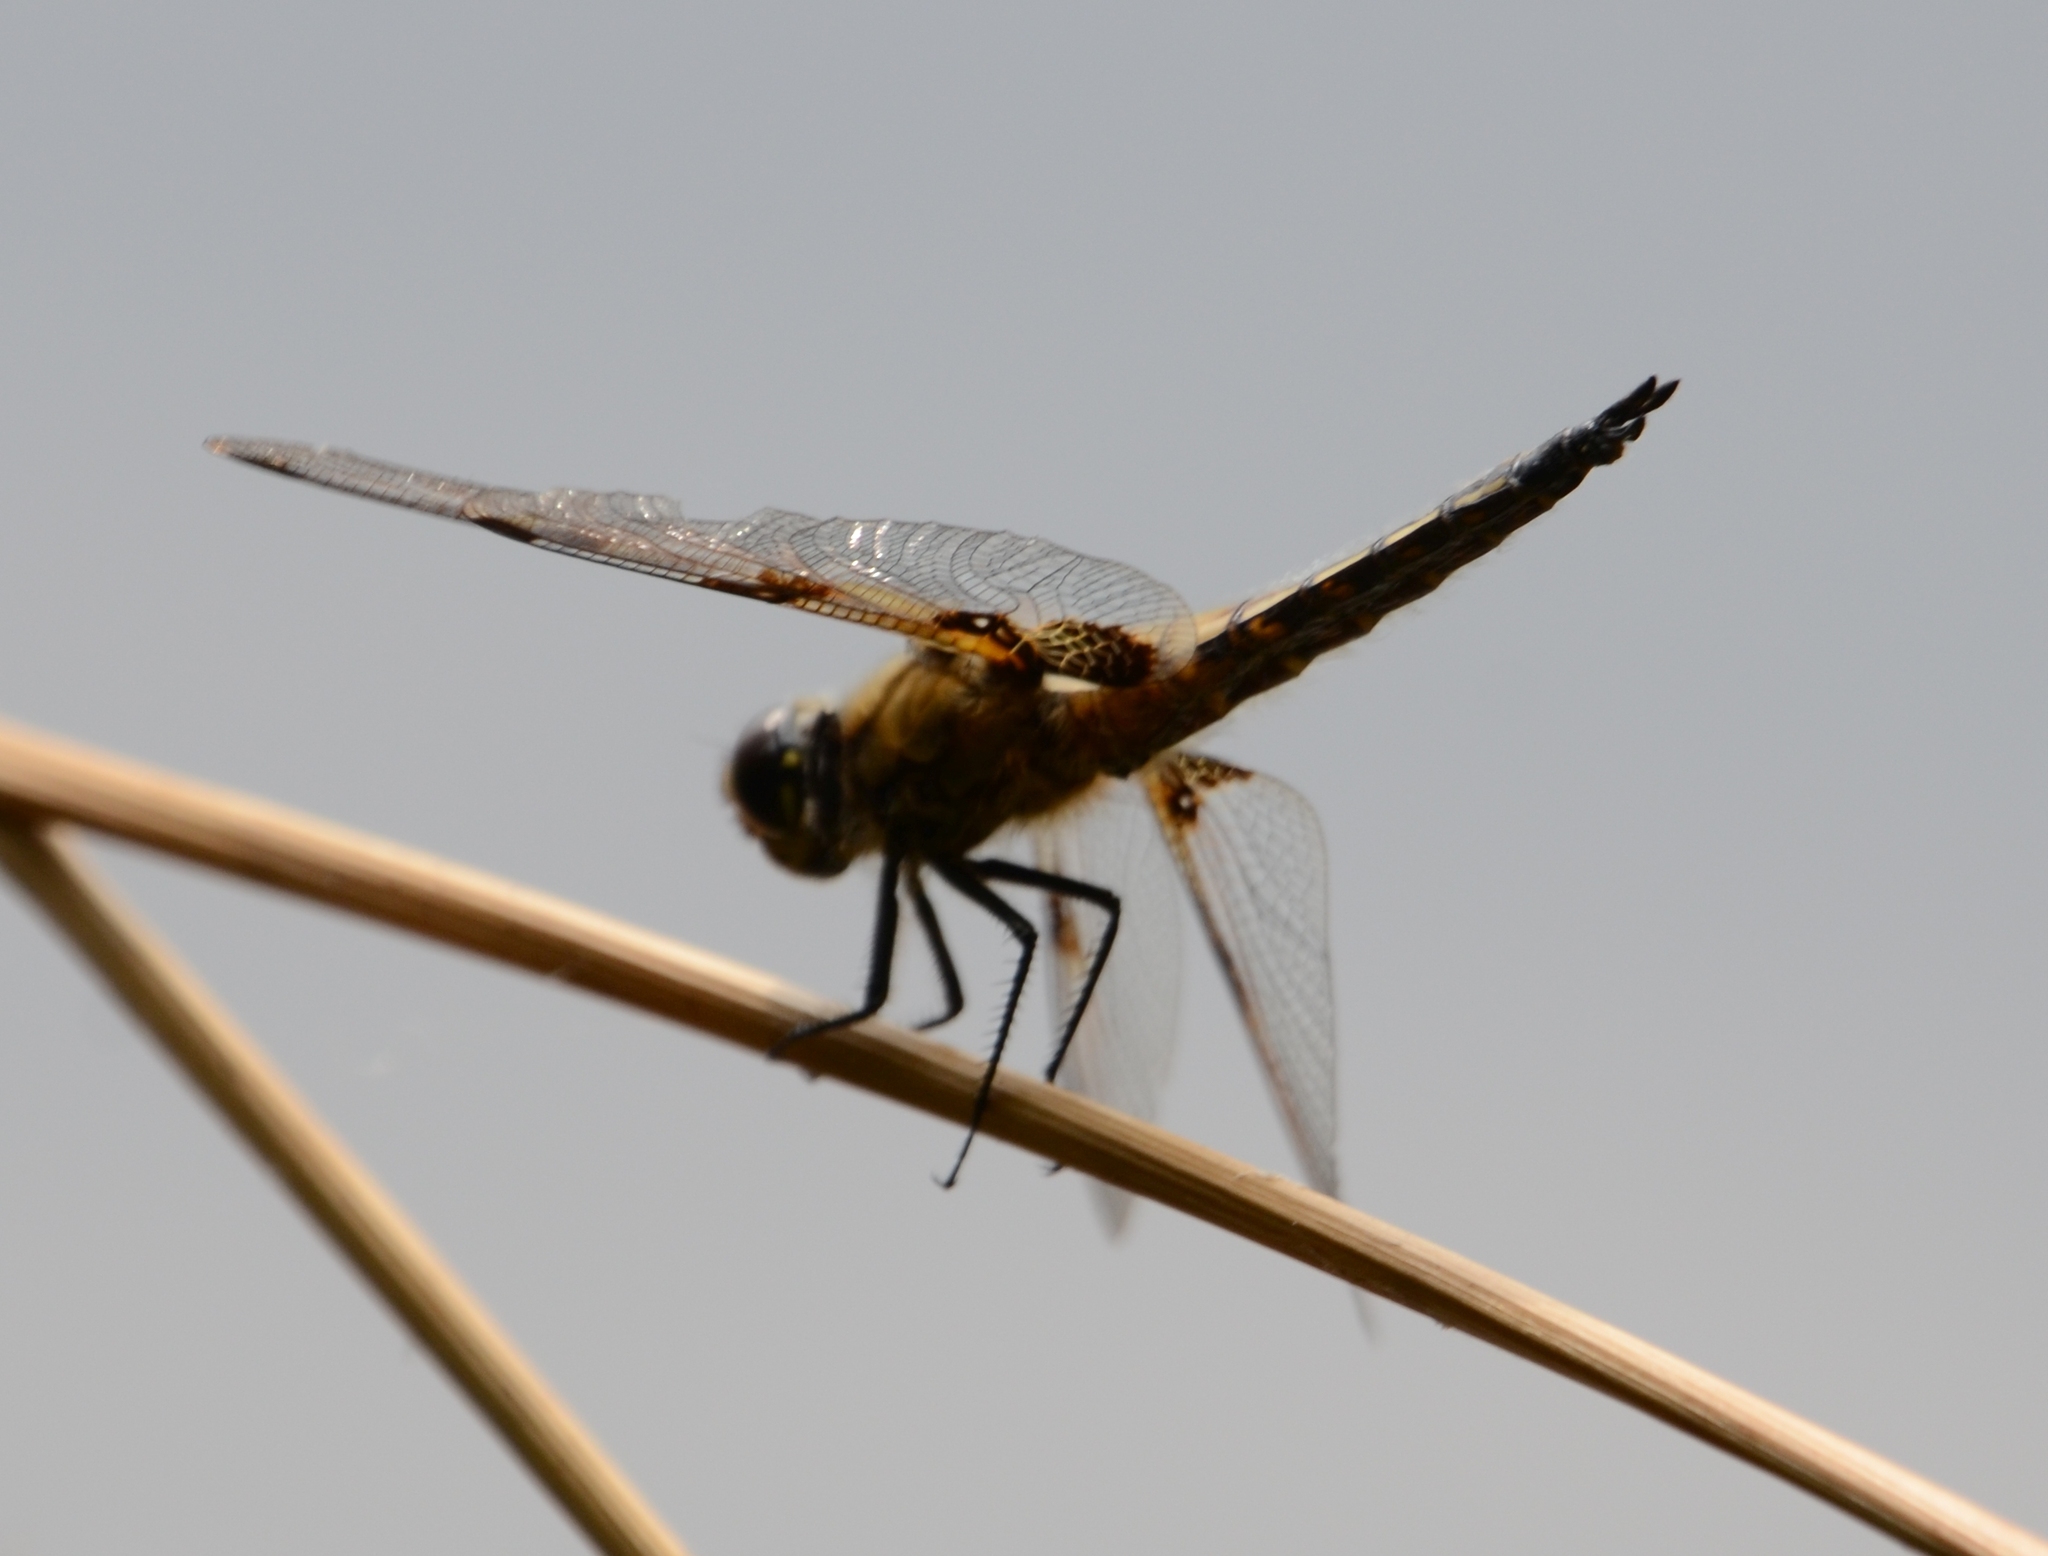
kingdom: Animalia
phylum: Arthropoda
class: Insecta
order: Odonata
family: Libellulidae
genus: Libellula
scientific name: Libellula quadrimaculata
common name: Four-spotted chaser
